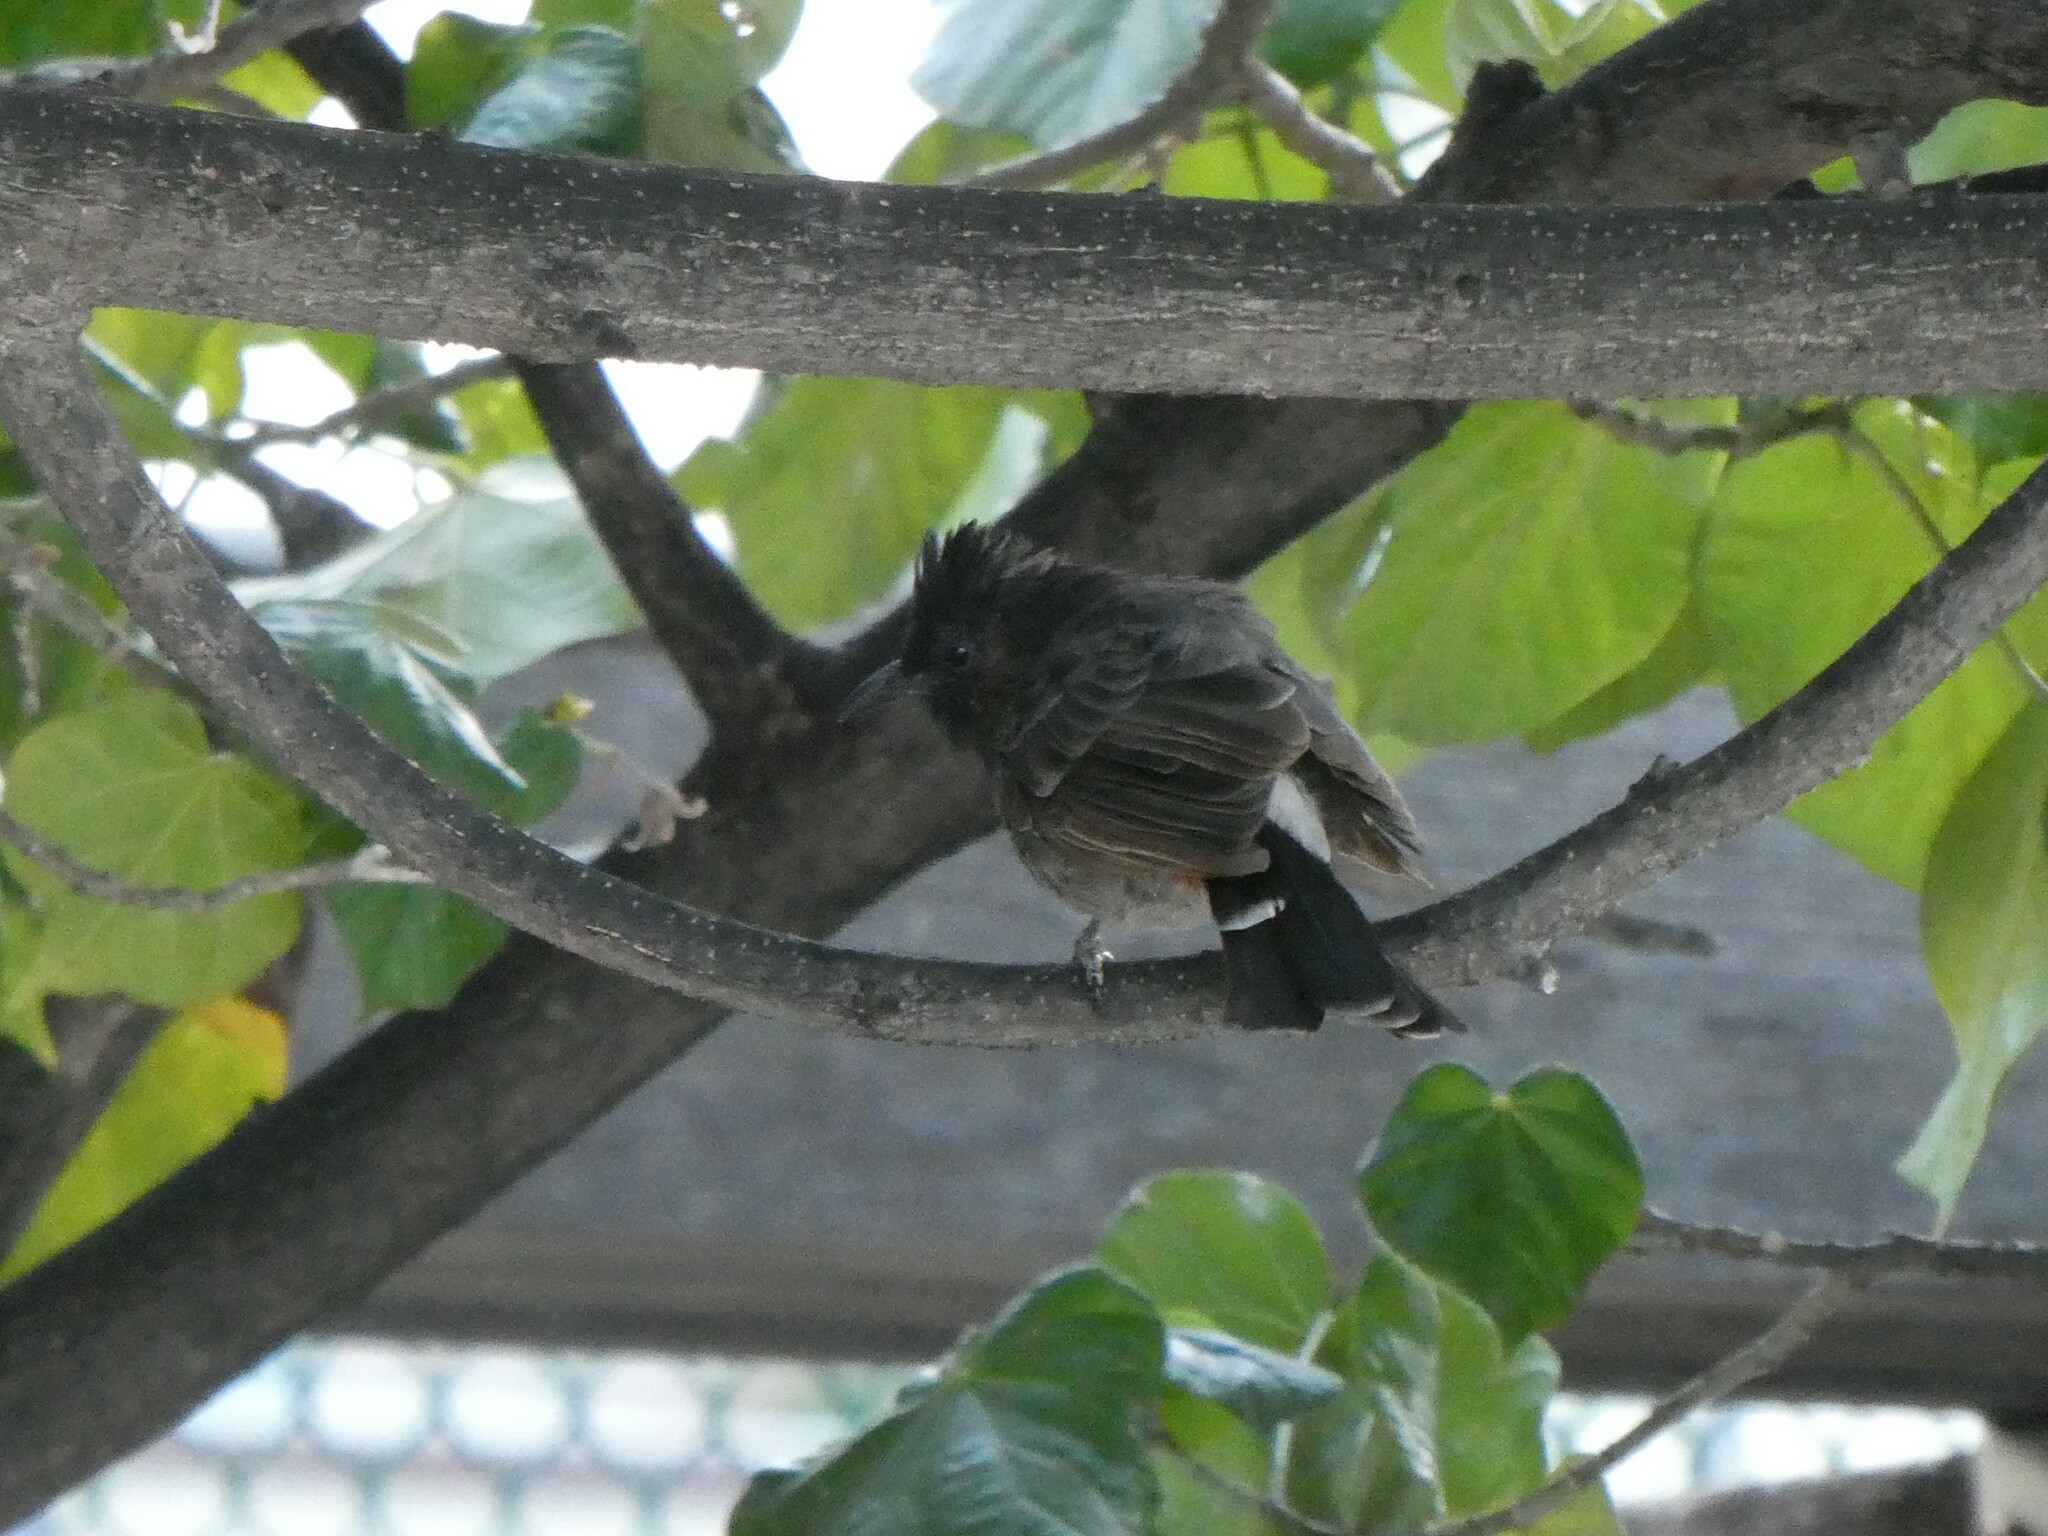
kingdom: Animalia
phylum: Chordata
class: Aves
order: Passeriformes
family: Pycnonotidae
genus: Pycnonotus
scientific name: Pycnonotus cafer
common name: Red-vented bulbul
